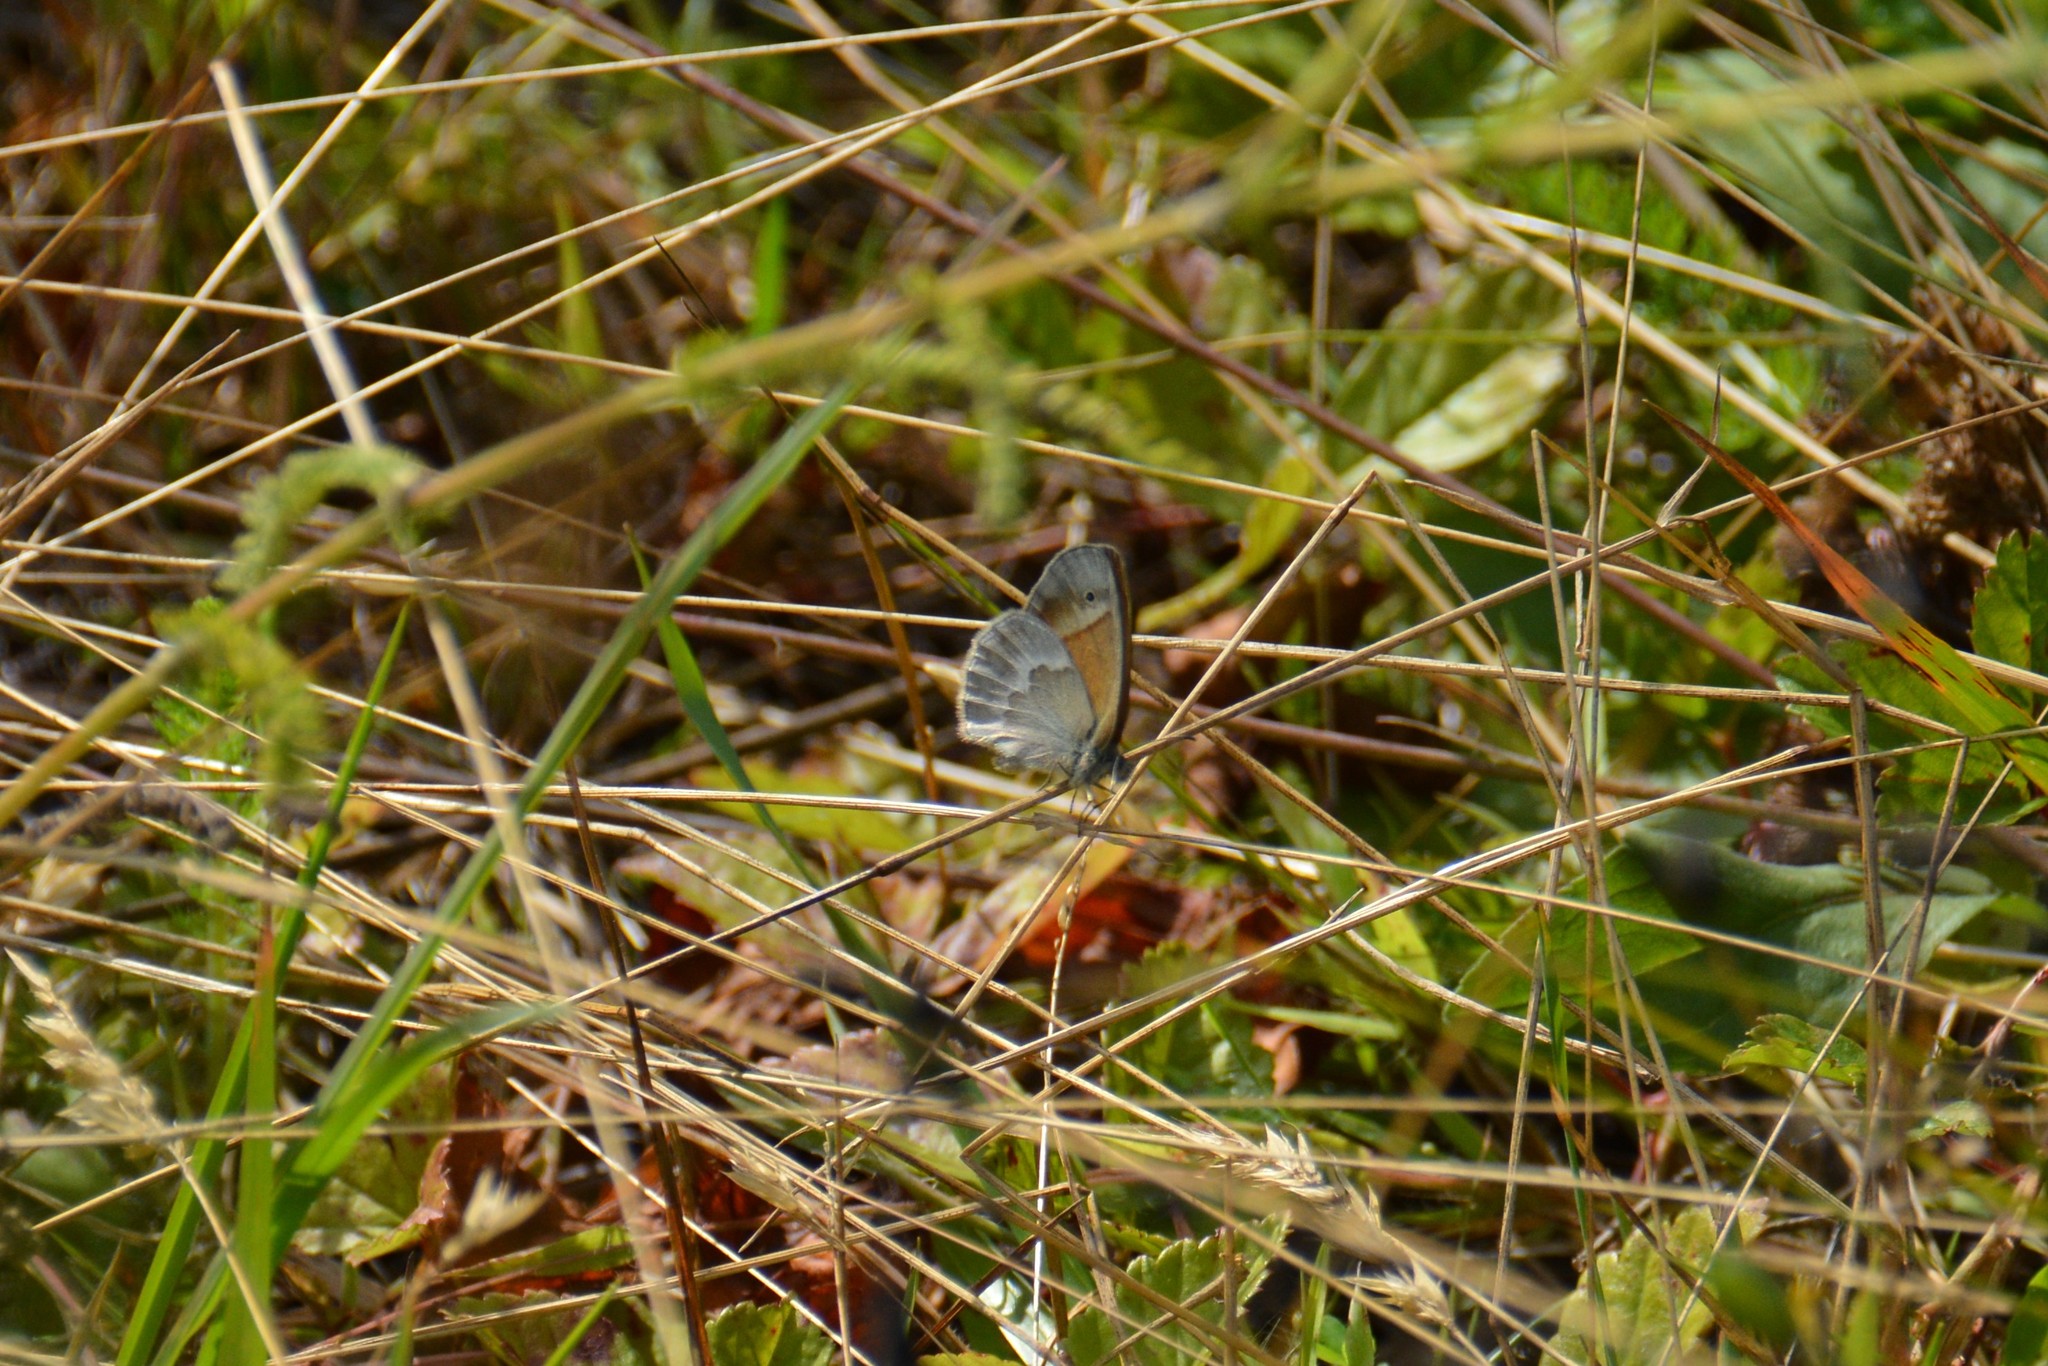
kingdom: Animalia
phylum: Arthropoda
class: Insecta
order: Lepidoptera
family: Nymphalidae
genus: Coenonympha
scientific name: Coenonympha california
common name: Common ringlet
